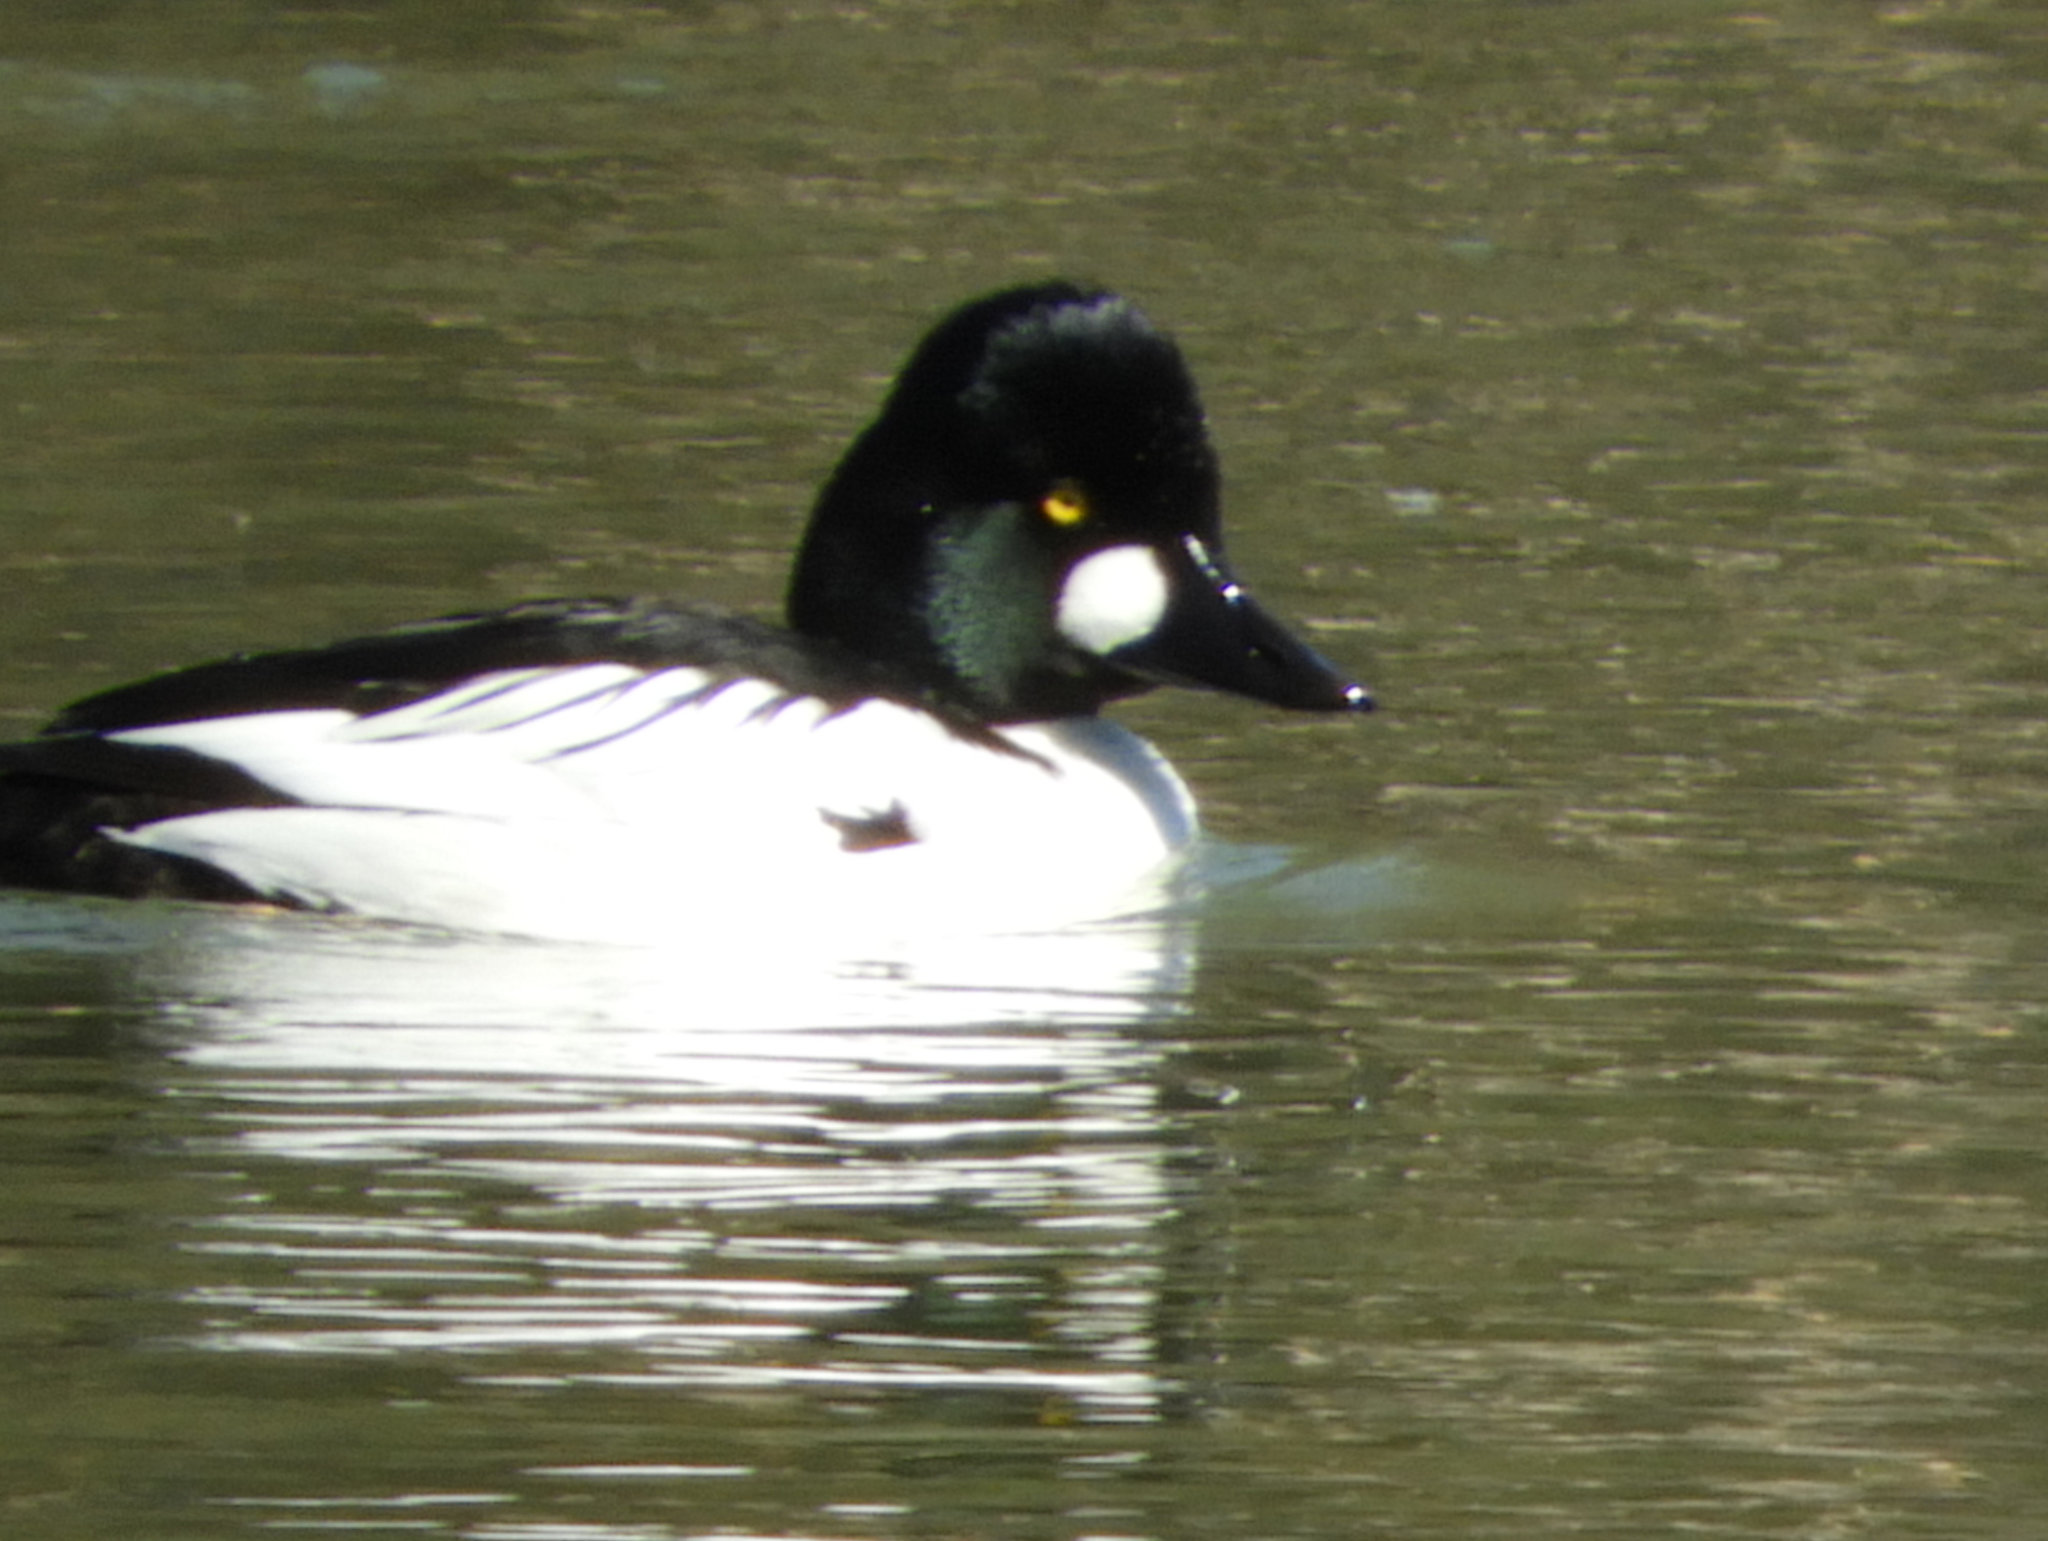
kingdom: Animalia
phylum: Chordata
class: Aves
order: Anseriformes
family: Anatidae
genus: Bucephala
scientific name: Bucephala clangula
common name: Common goldeneye
